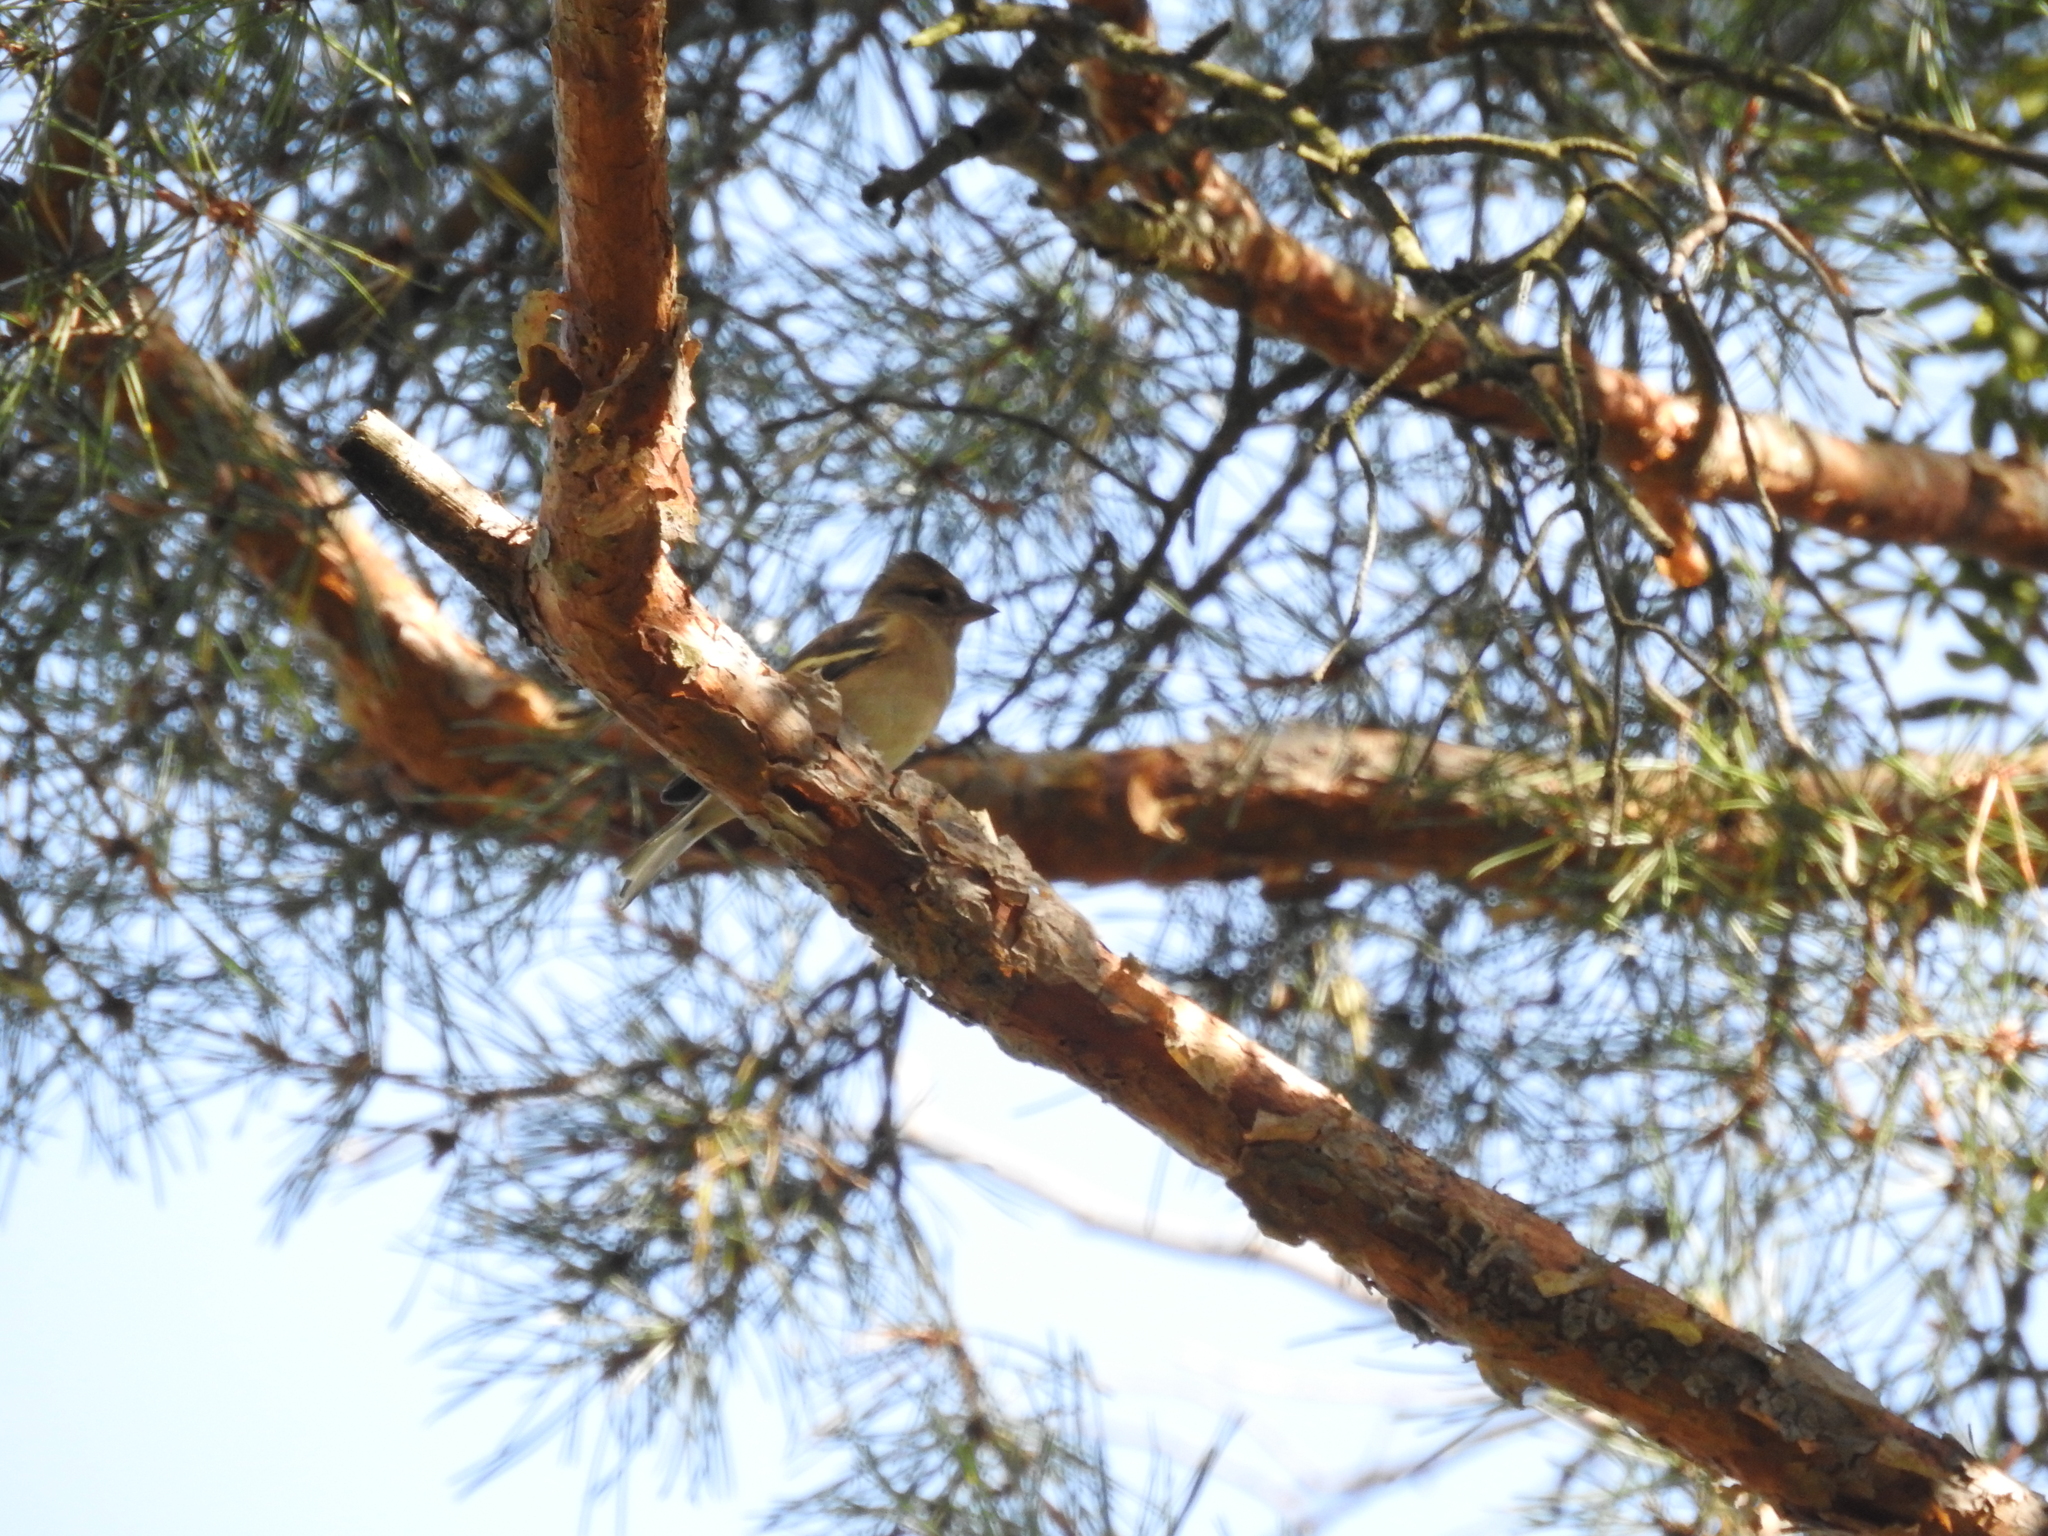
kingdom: Animalia
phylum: Chordata
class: Aves
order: Passeriformes
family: Fringillidae
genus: Fringilla
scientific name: Fringilla coelebs
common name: Common chaffinch
